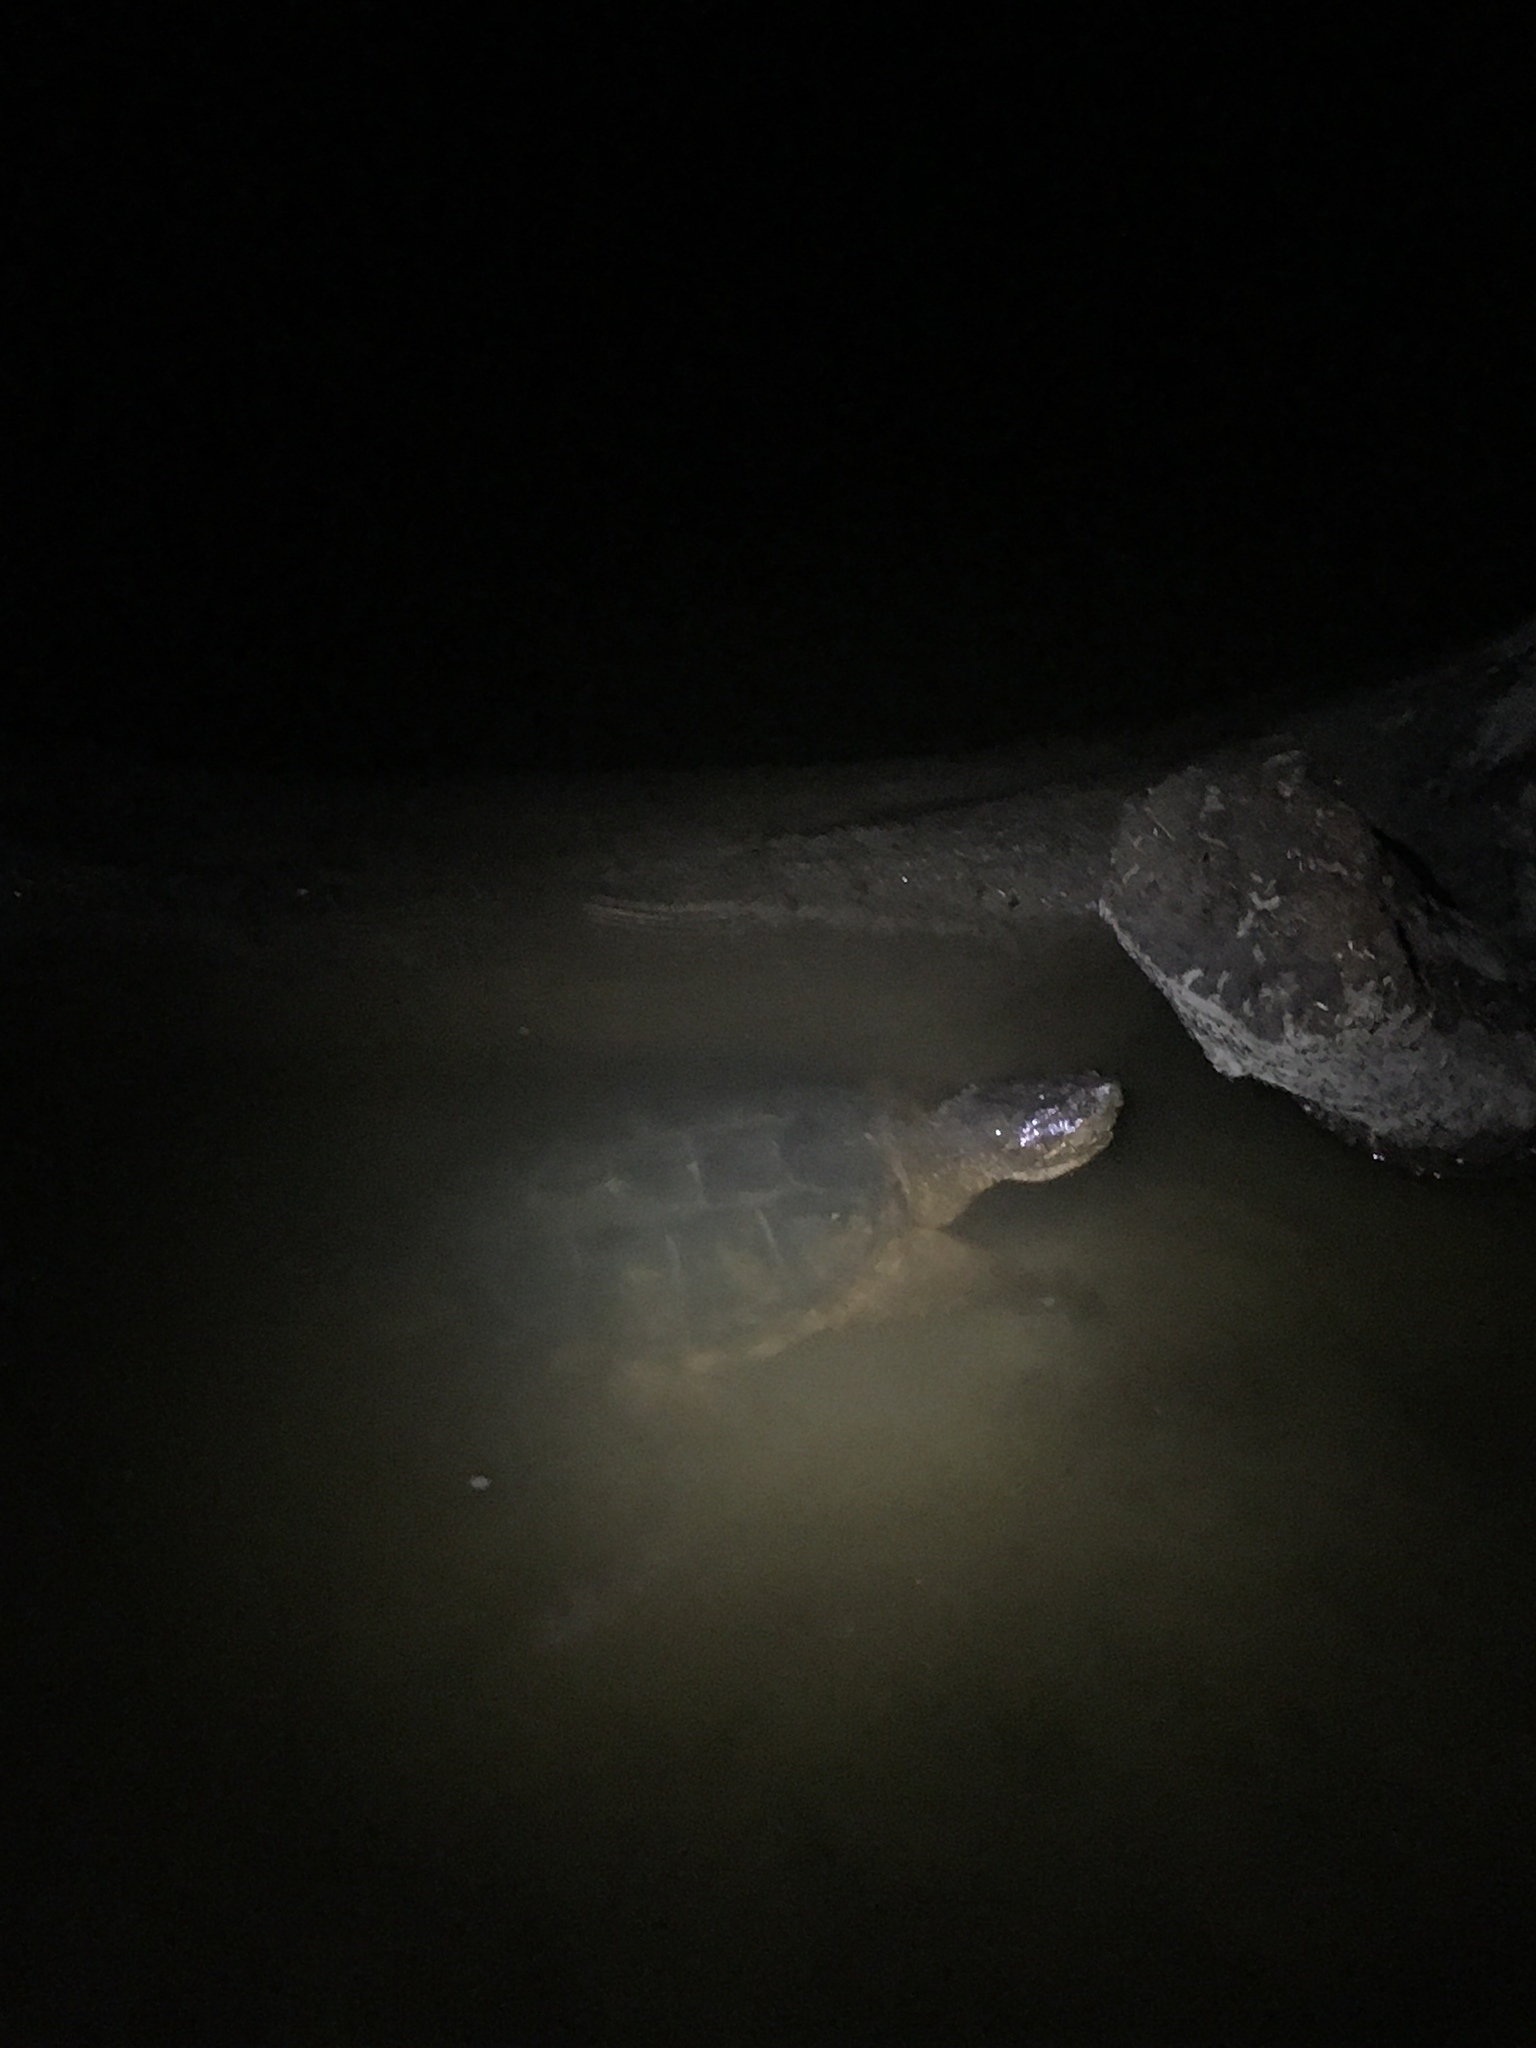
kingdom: Animalia
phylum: Chordata
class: Testudines
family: Chelydridae
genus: Chelydra
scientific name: Chelydra serpentina
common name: Common snapping turtle
